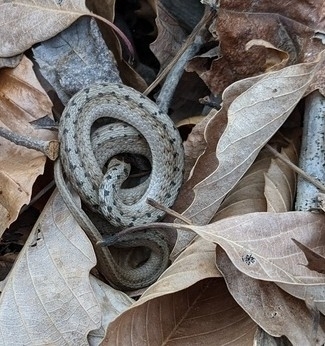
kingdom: Animalia
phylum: Chordata
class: Squamata
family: Colubridae
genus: Storeria
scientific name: Storeria dekayi
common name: (dekay’s) brown snake
